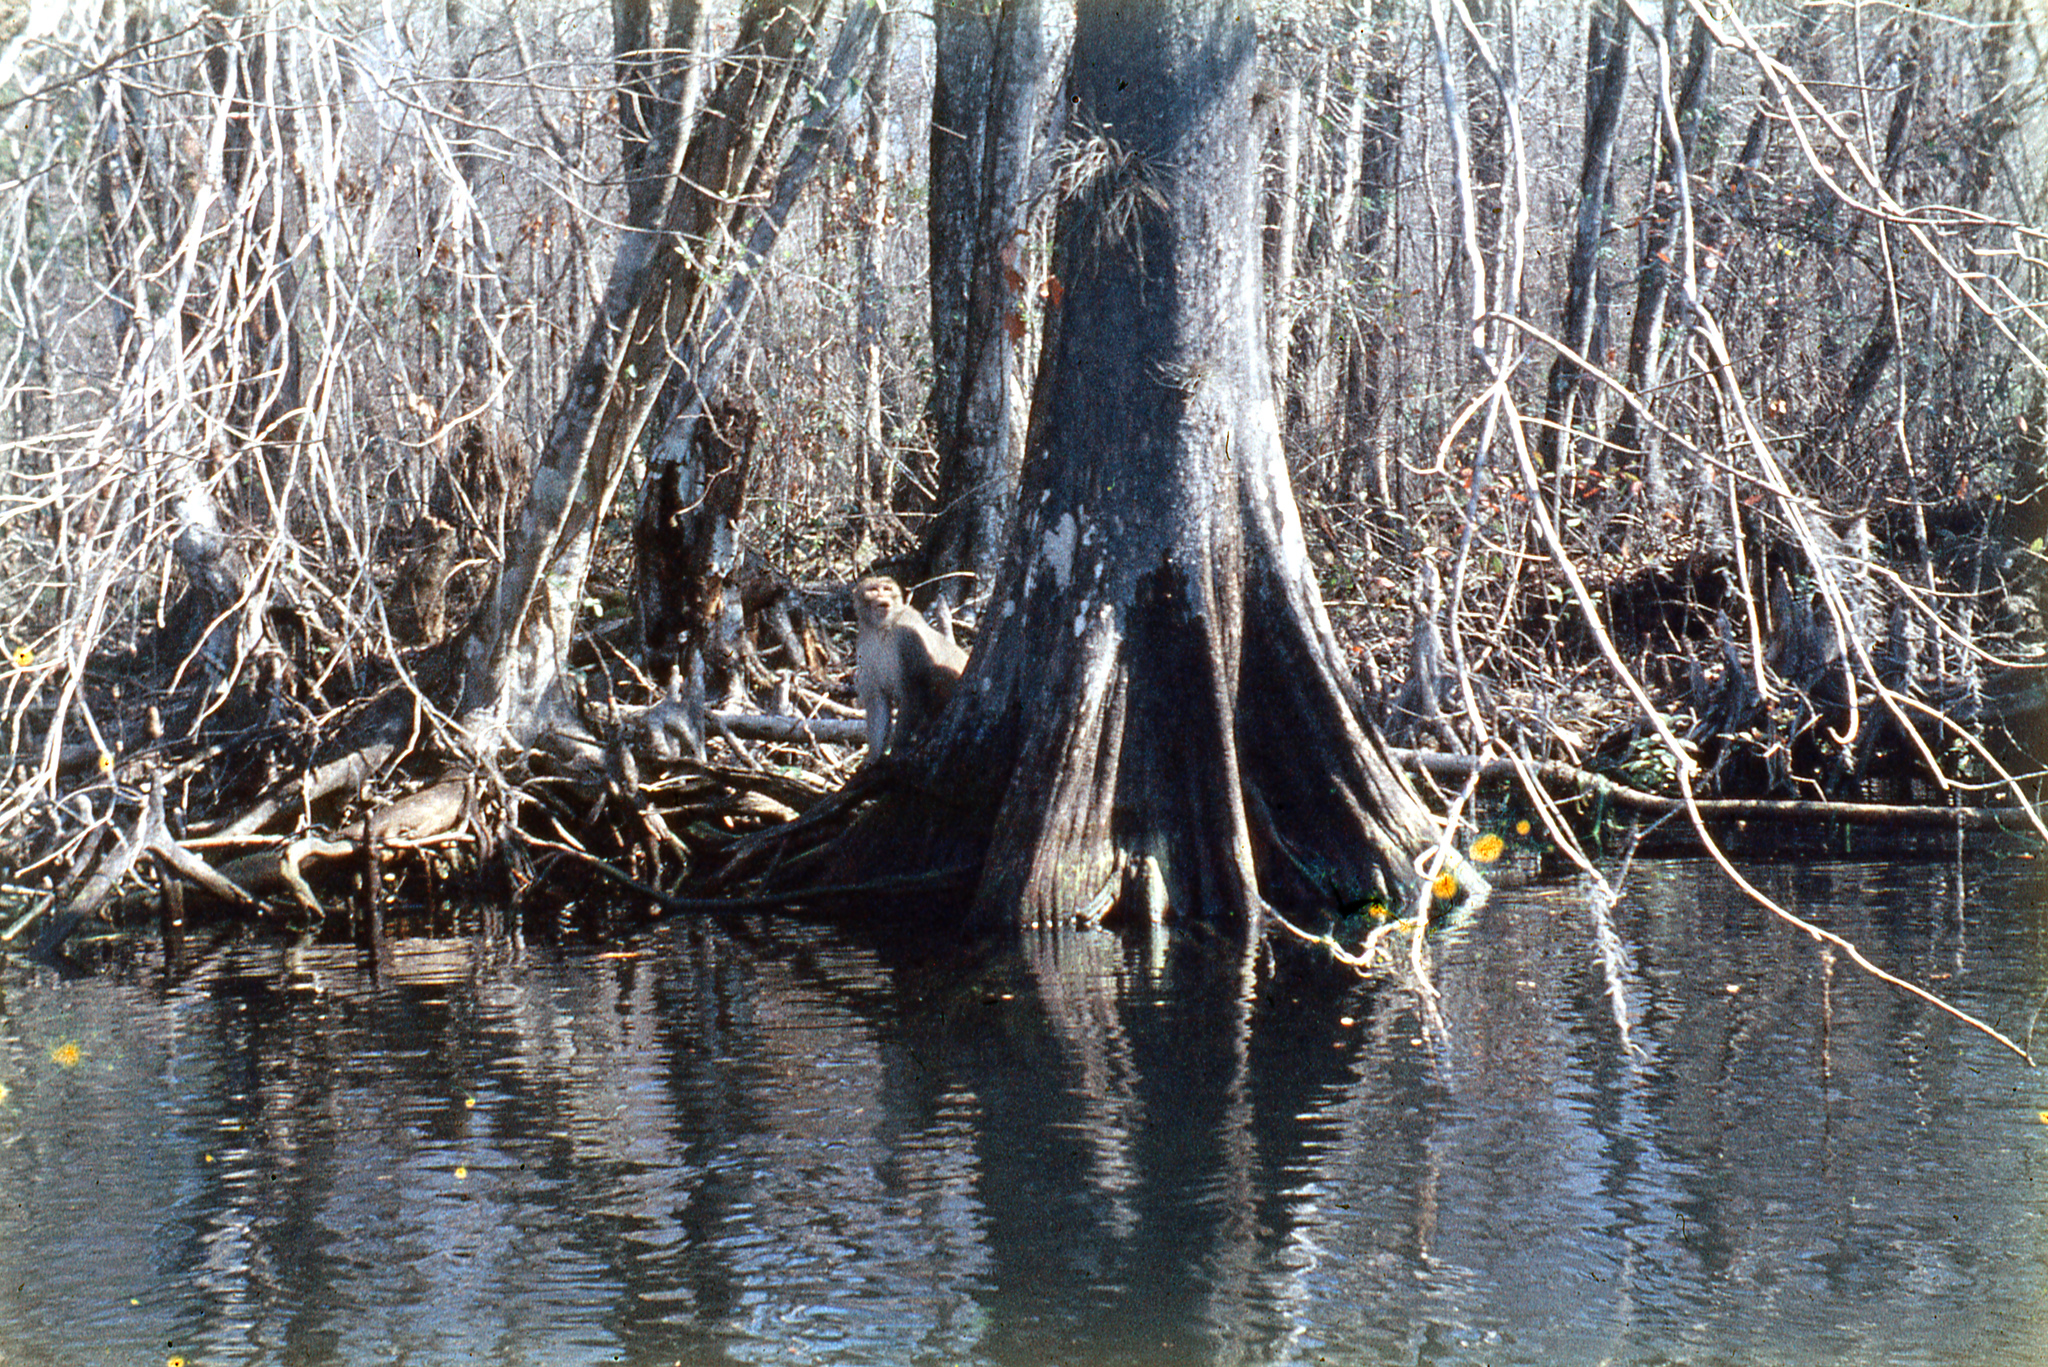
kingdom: Animalia
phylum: Chordata
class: Mammalia
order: Primates
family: Cercopithecidae
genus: Macaca
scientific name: Macaca mulatta
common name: Rhesus monkey
